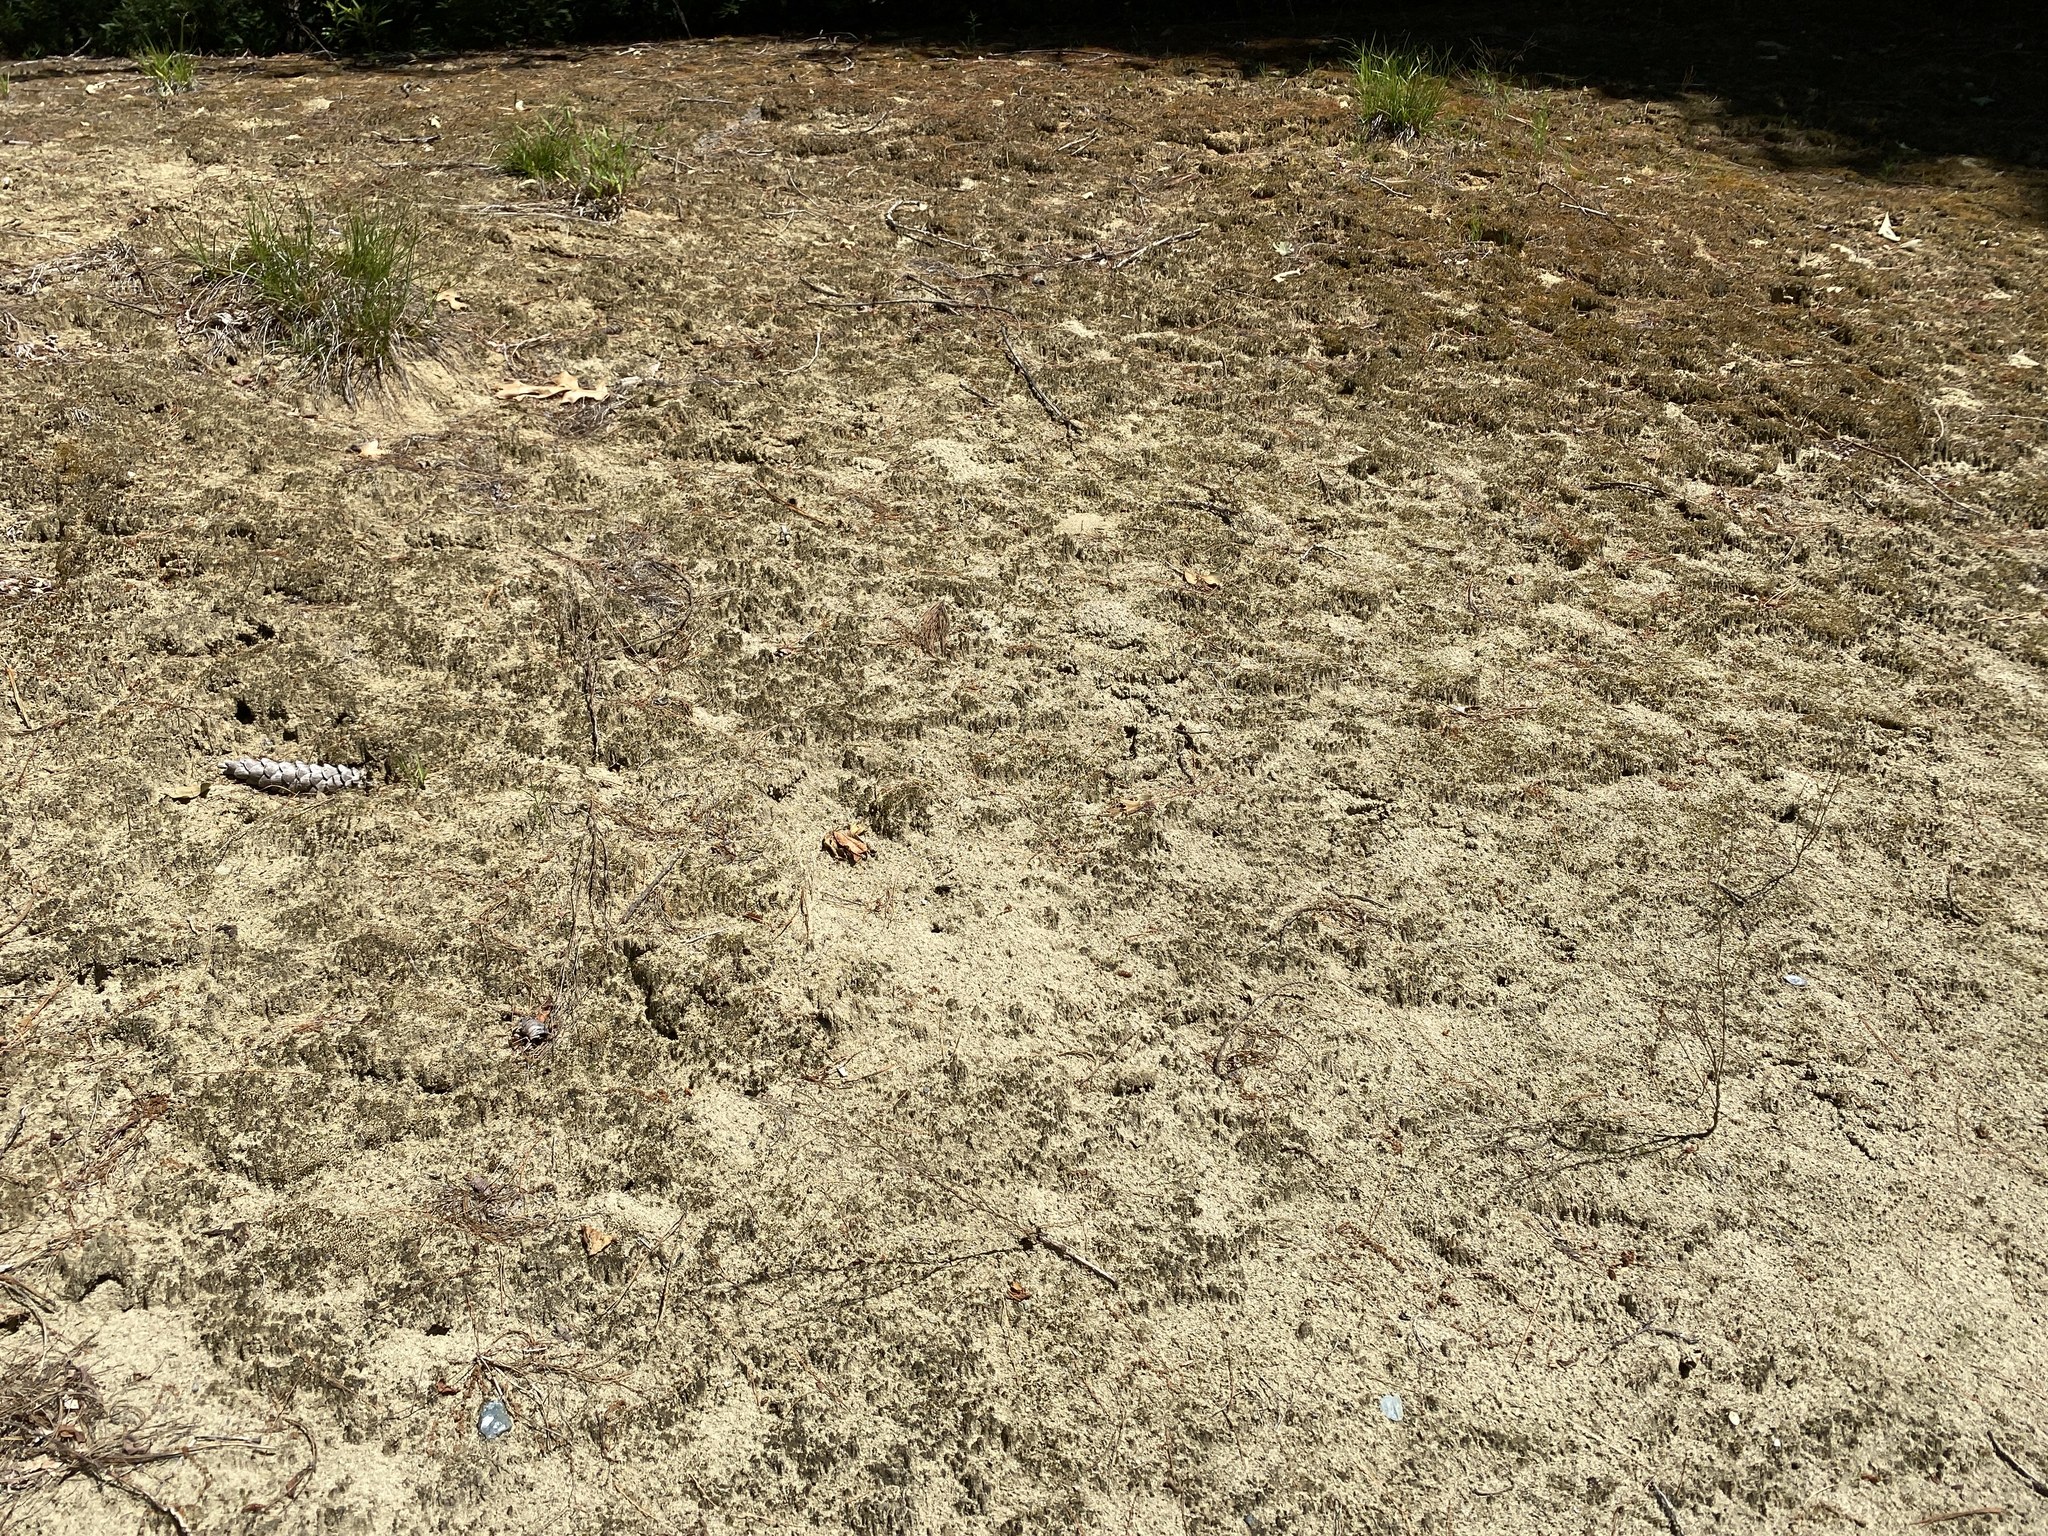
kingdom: Animalia
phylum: Arthropoda
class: Insecta
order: Hymenoptera
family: Crabronidae
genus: Bicyrtes
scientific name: Bicyrtes quadrifasciatus
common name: Four-banded stink bug hunter wasp
